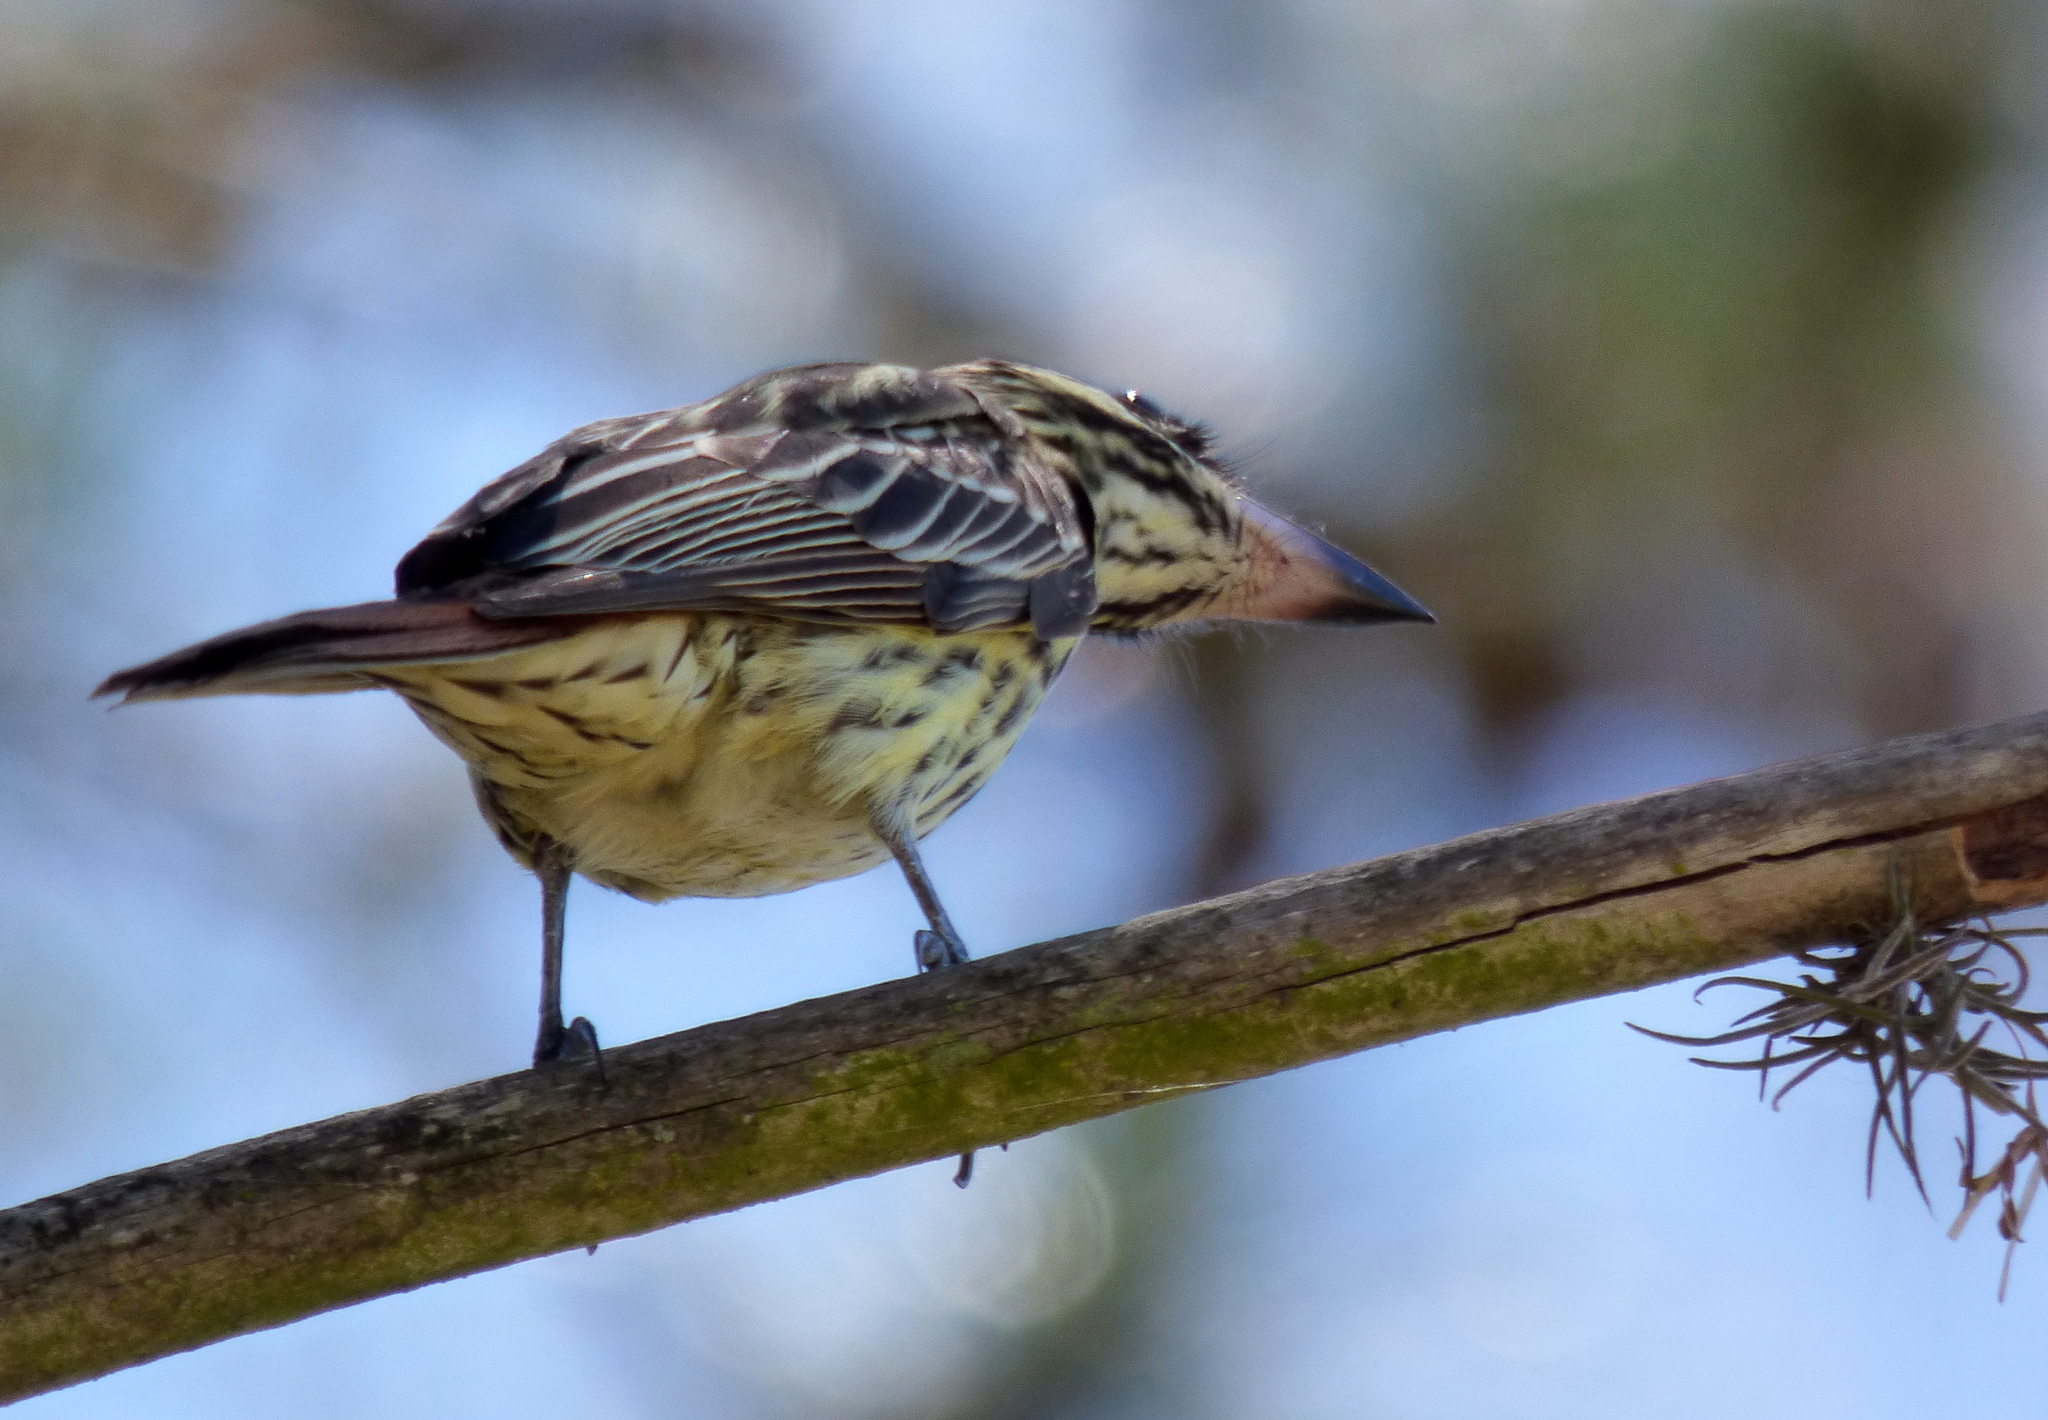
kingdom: Animalia
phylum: Chordata
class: Aves
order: Passeriformes
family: Tyrannidae
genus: Myiodynastes
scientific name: Myiodynastes maculatus
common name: Streaked flycatcher
